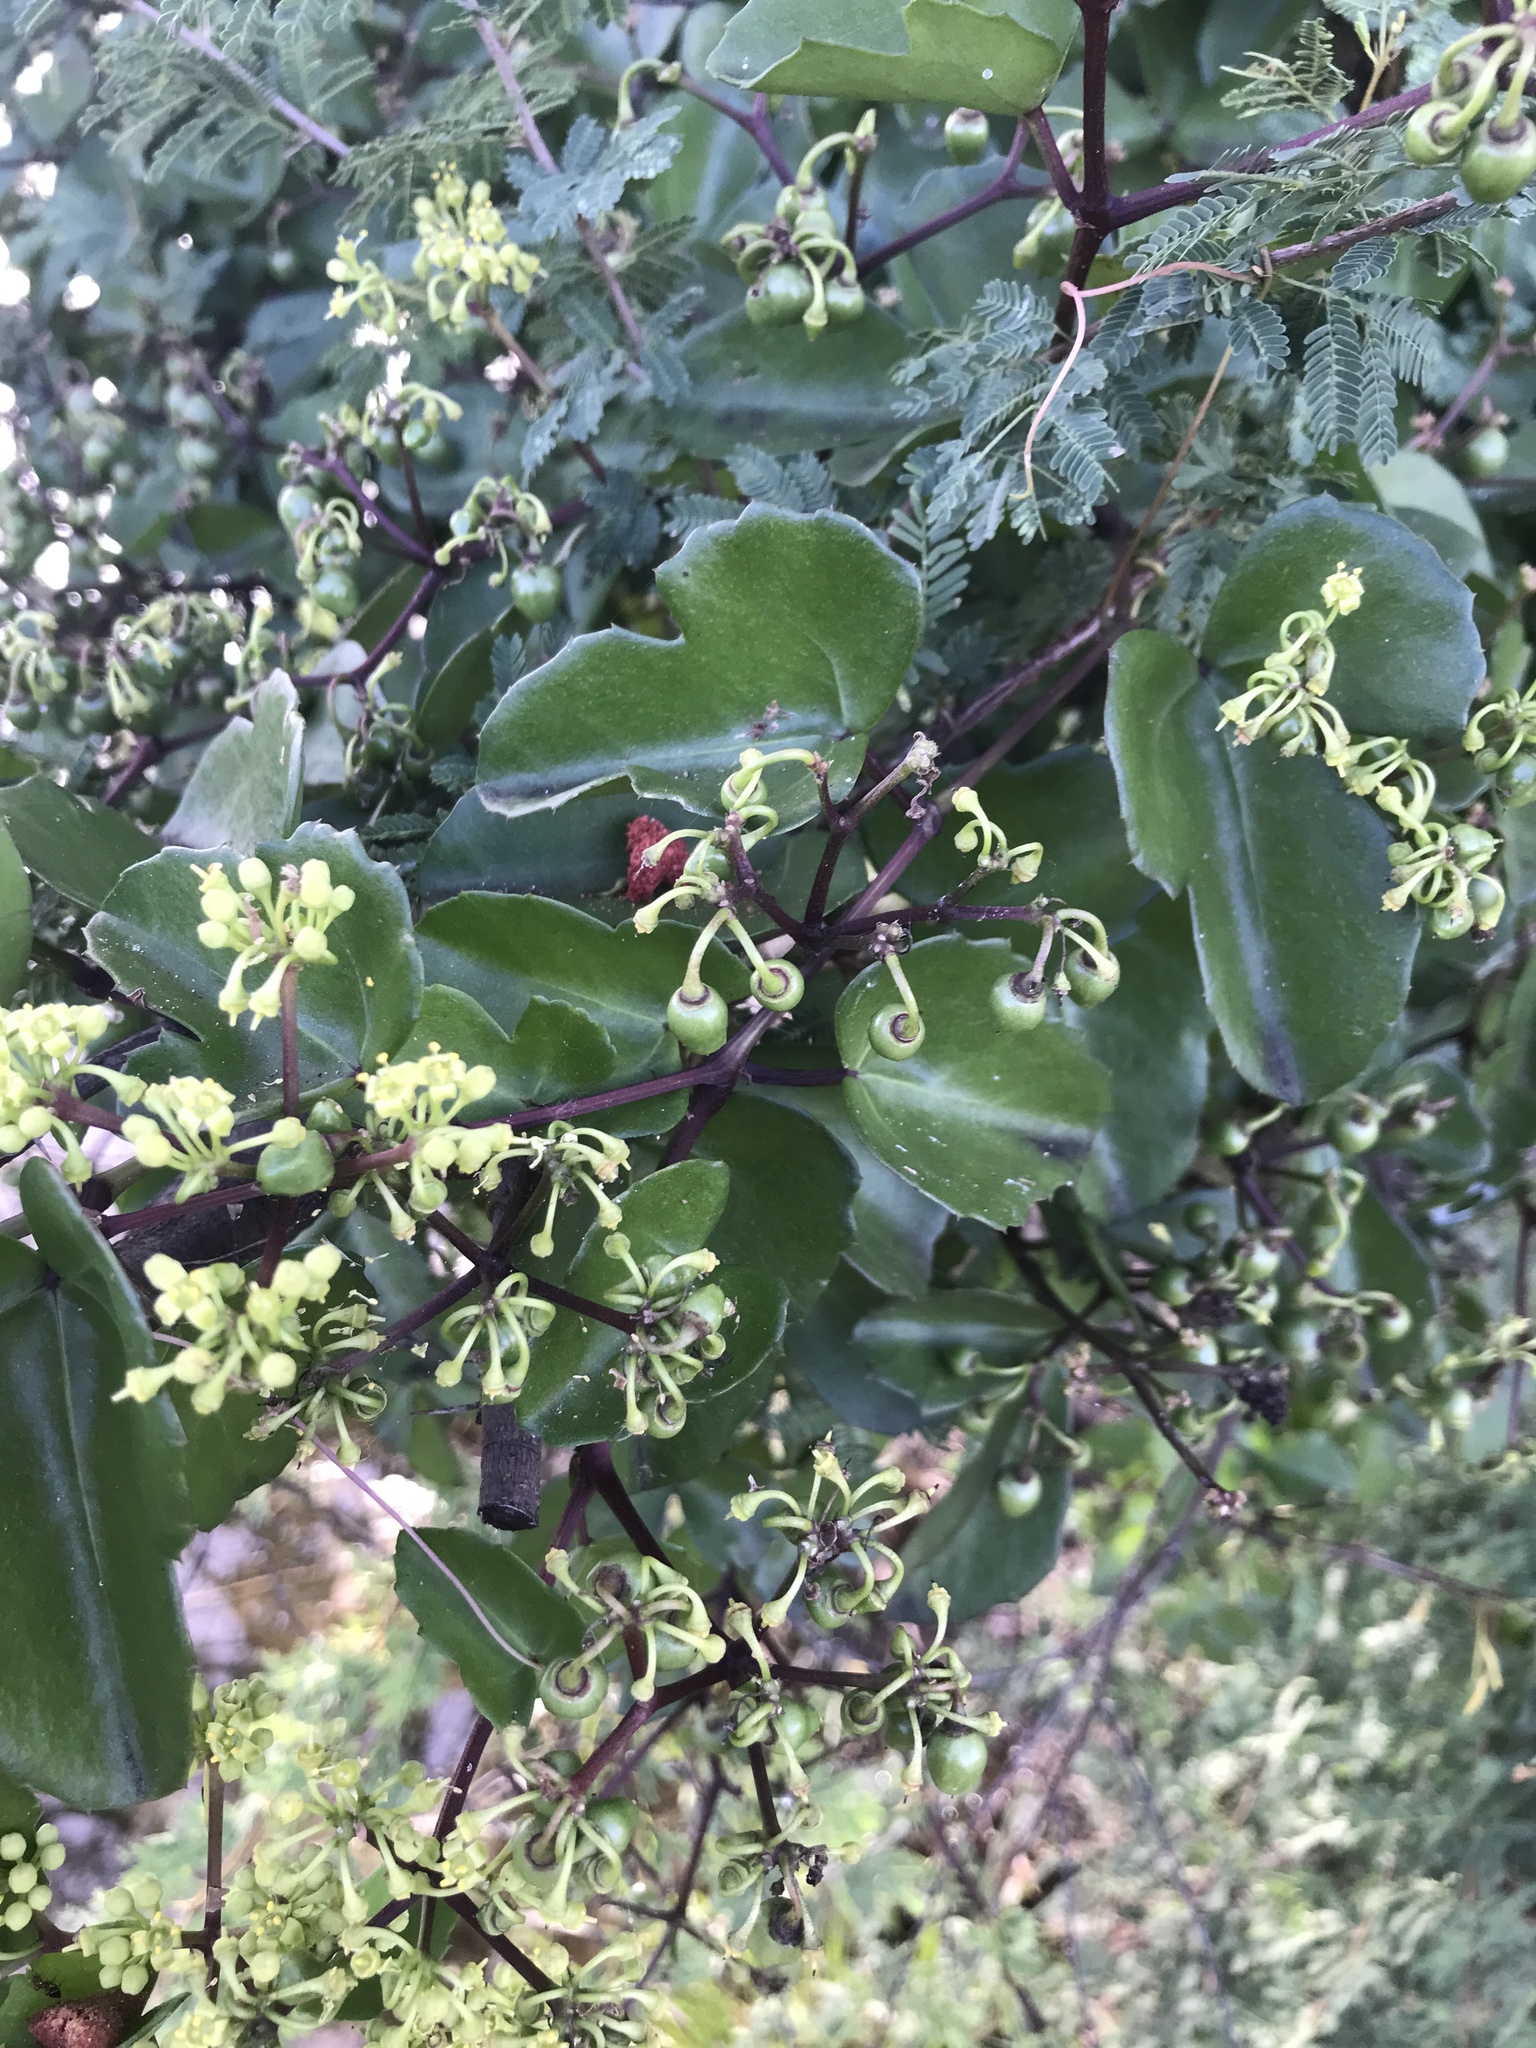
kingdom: Plantae
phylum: Tracheophyta
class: Magnoliopsida
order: Vitales
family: Vitaceae
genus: Cissus
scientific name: Cissus trifoliata
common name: Vine-sorrel
